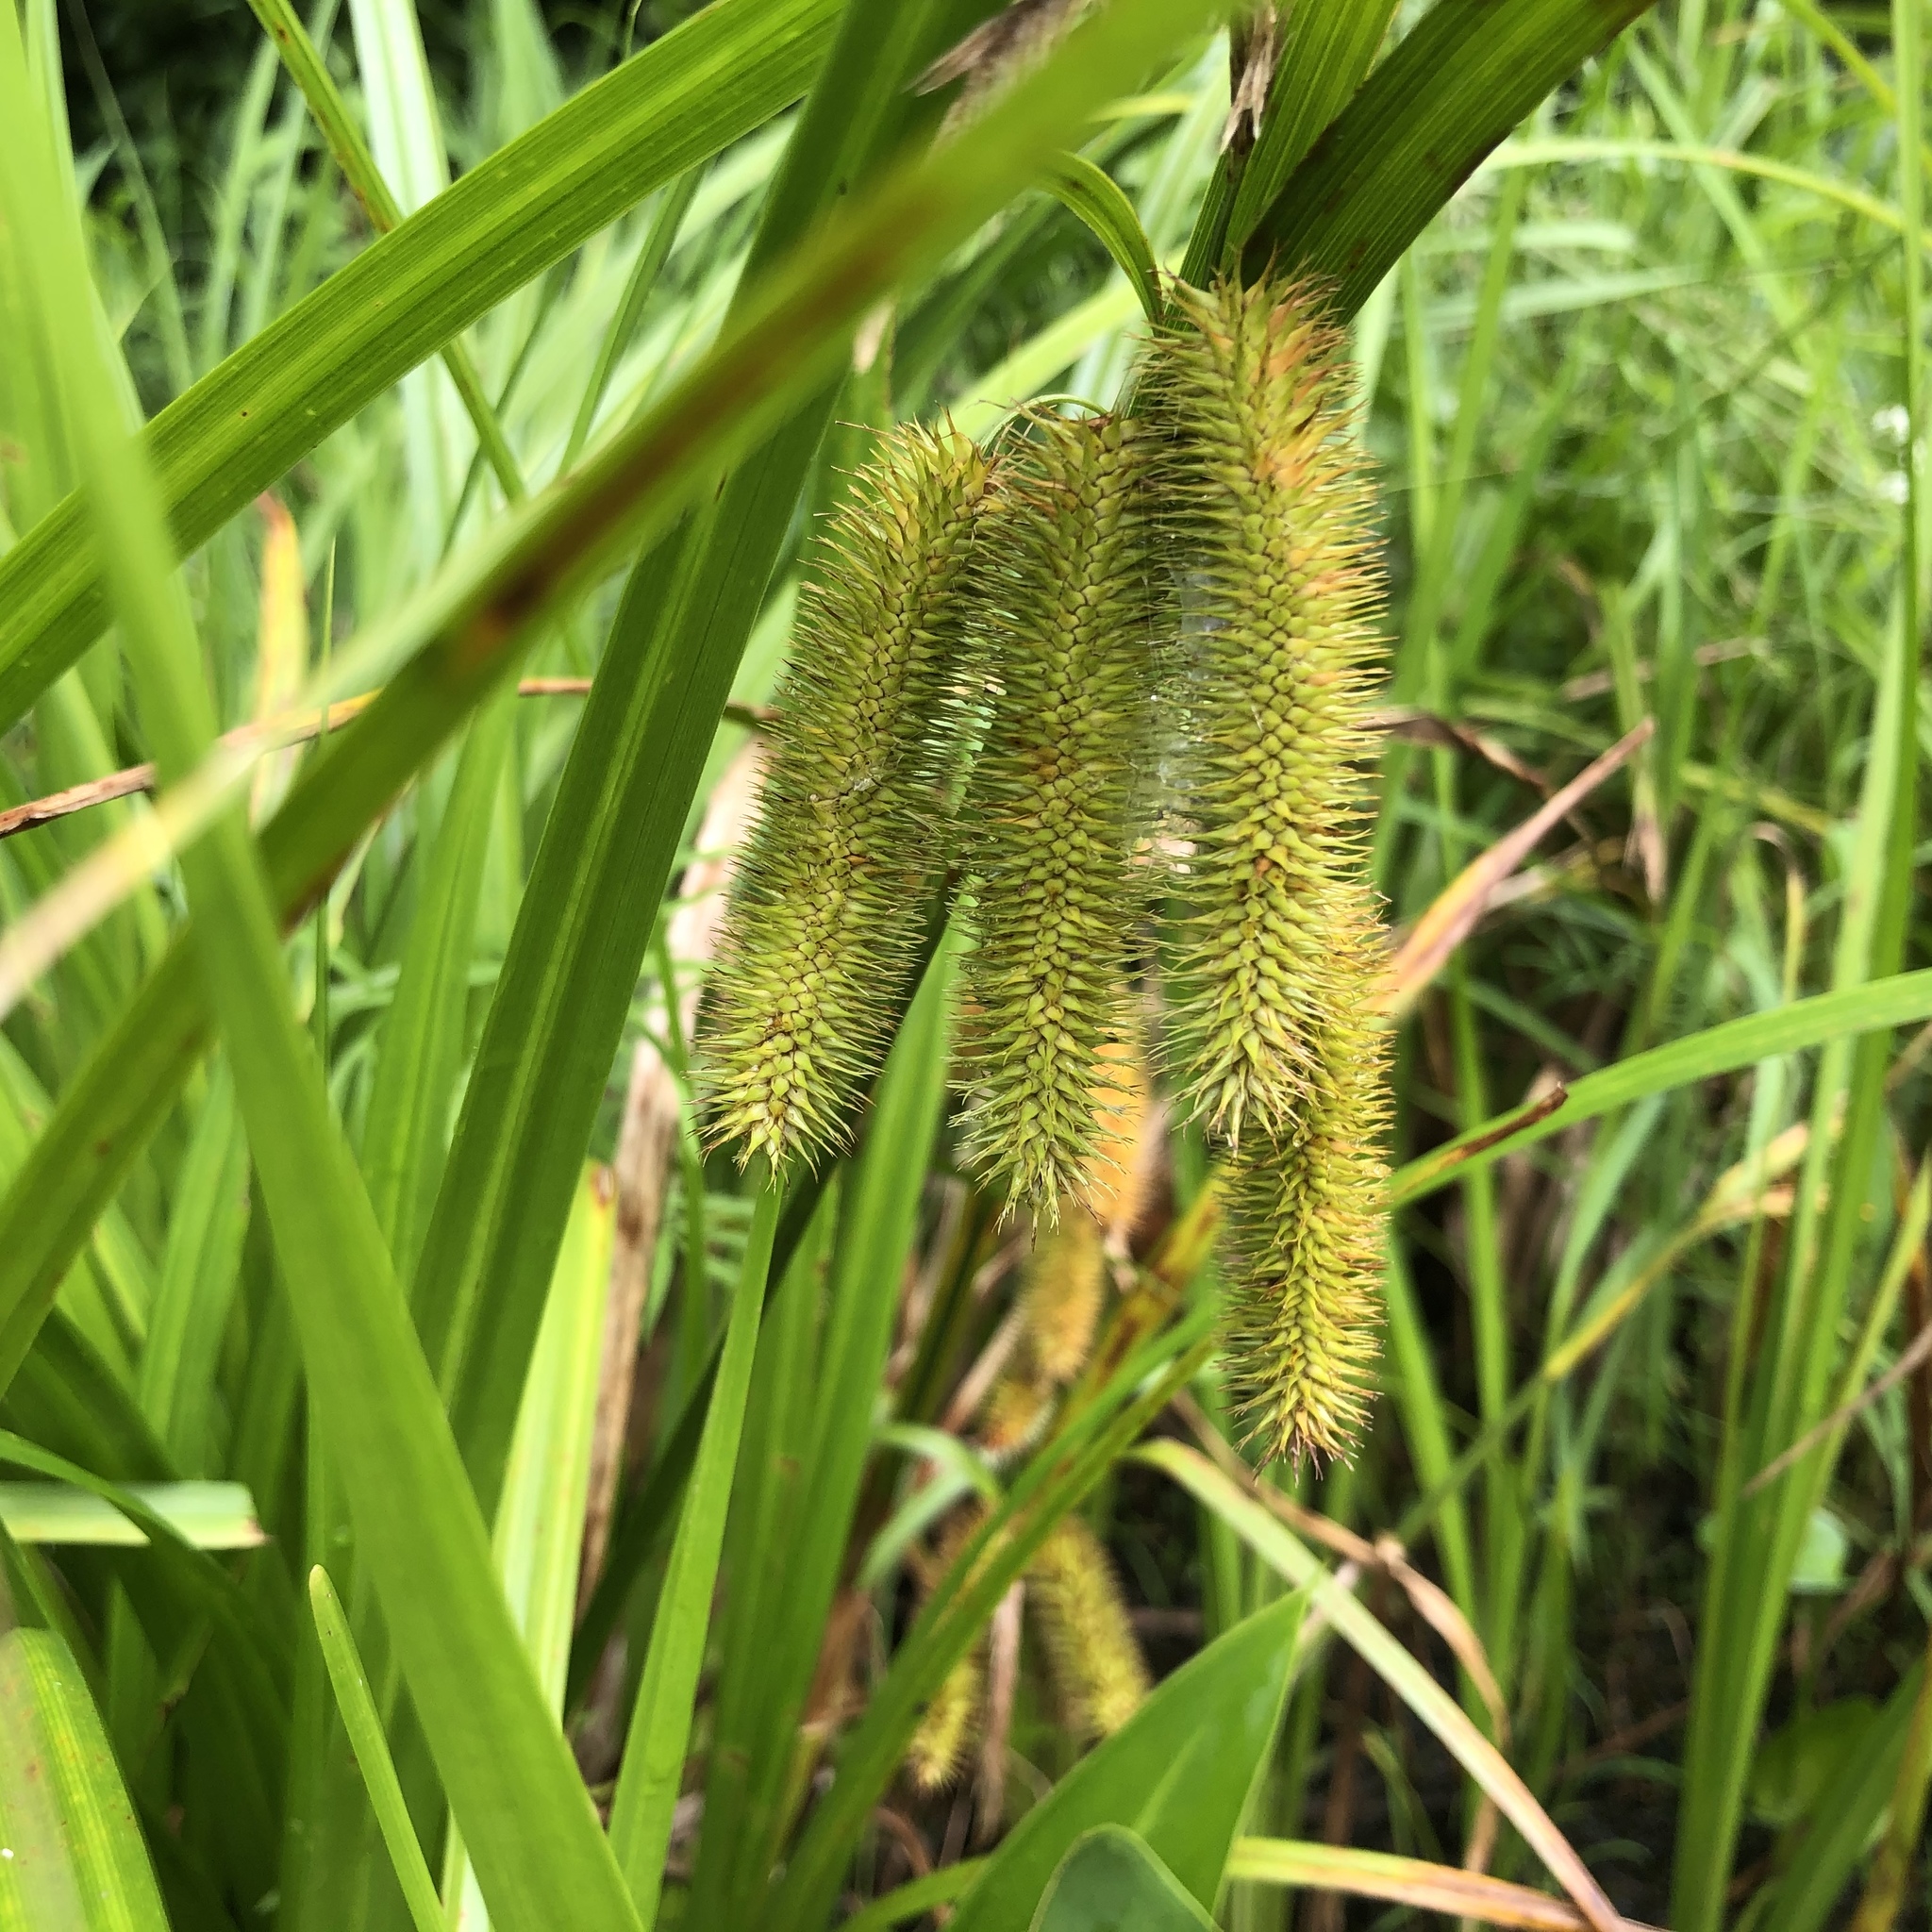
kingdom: Plantae
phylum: Tracheophyta
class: Liliopsida
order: Poales
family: Cyperaceae
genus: Carex
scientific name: Carex comosa
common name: Bristly sedge
